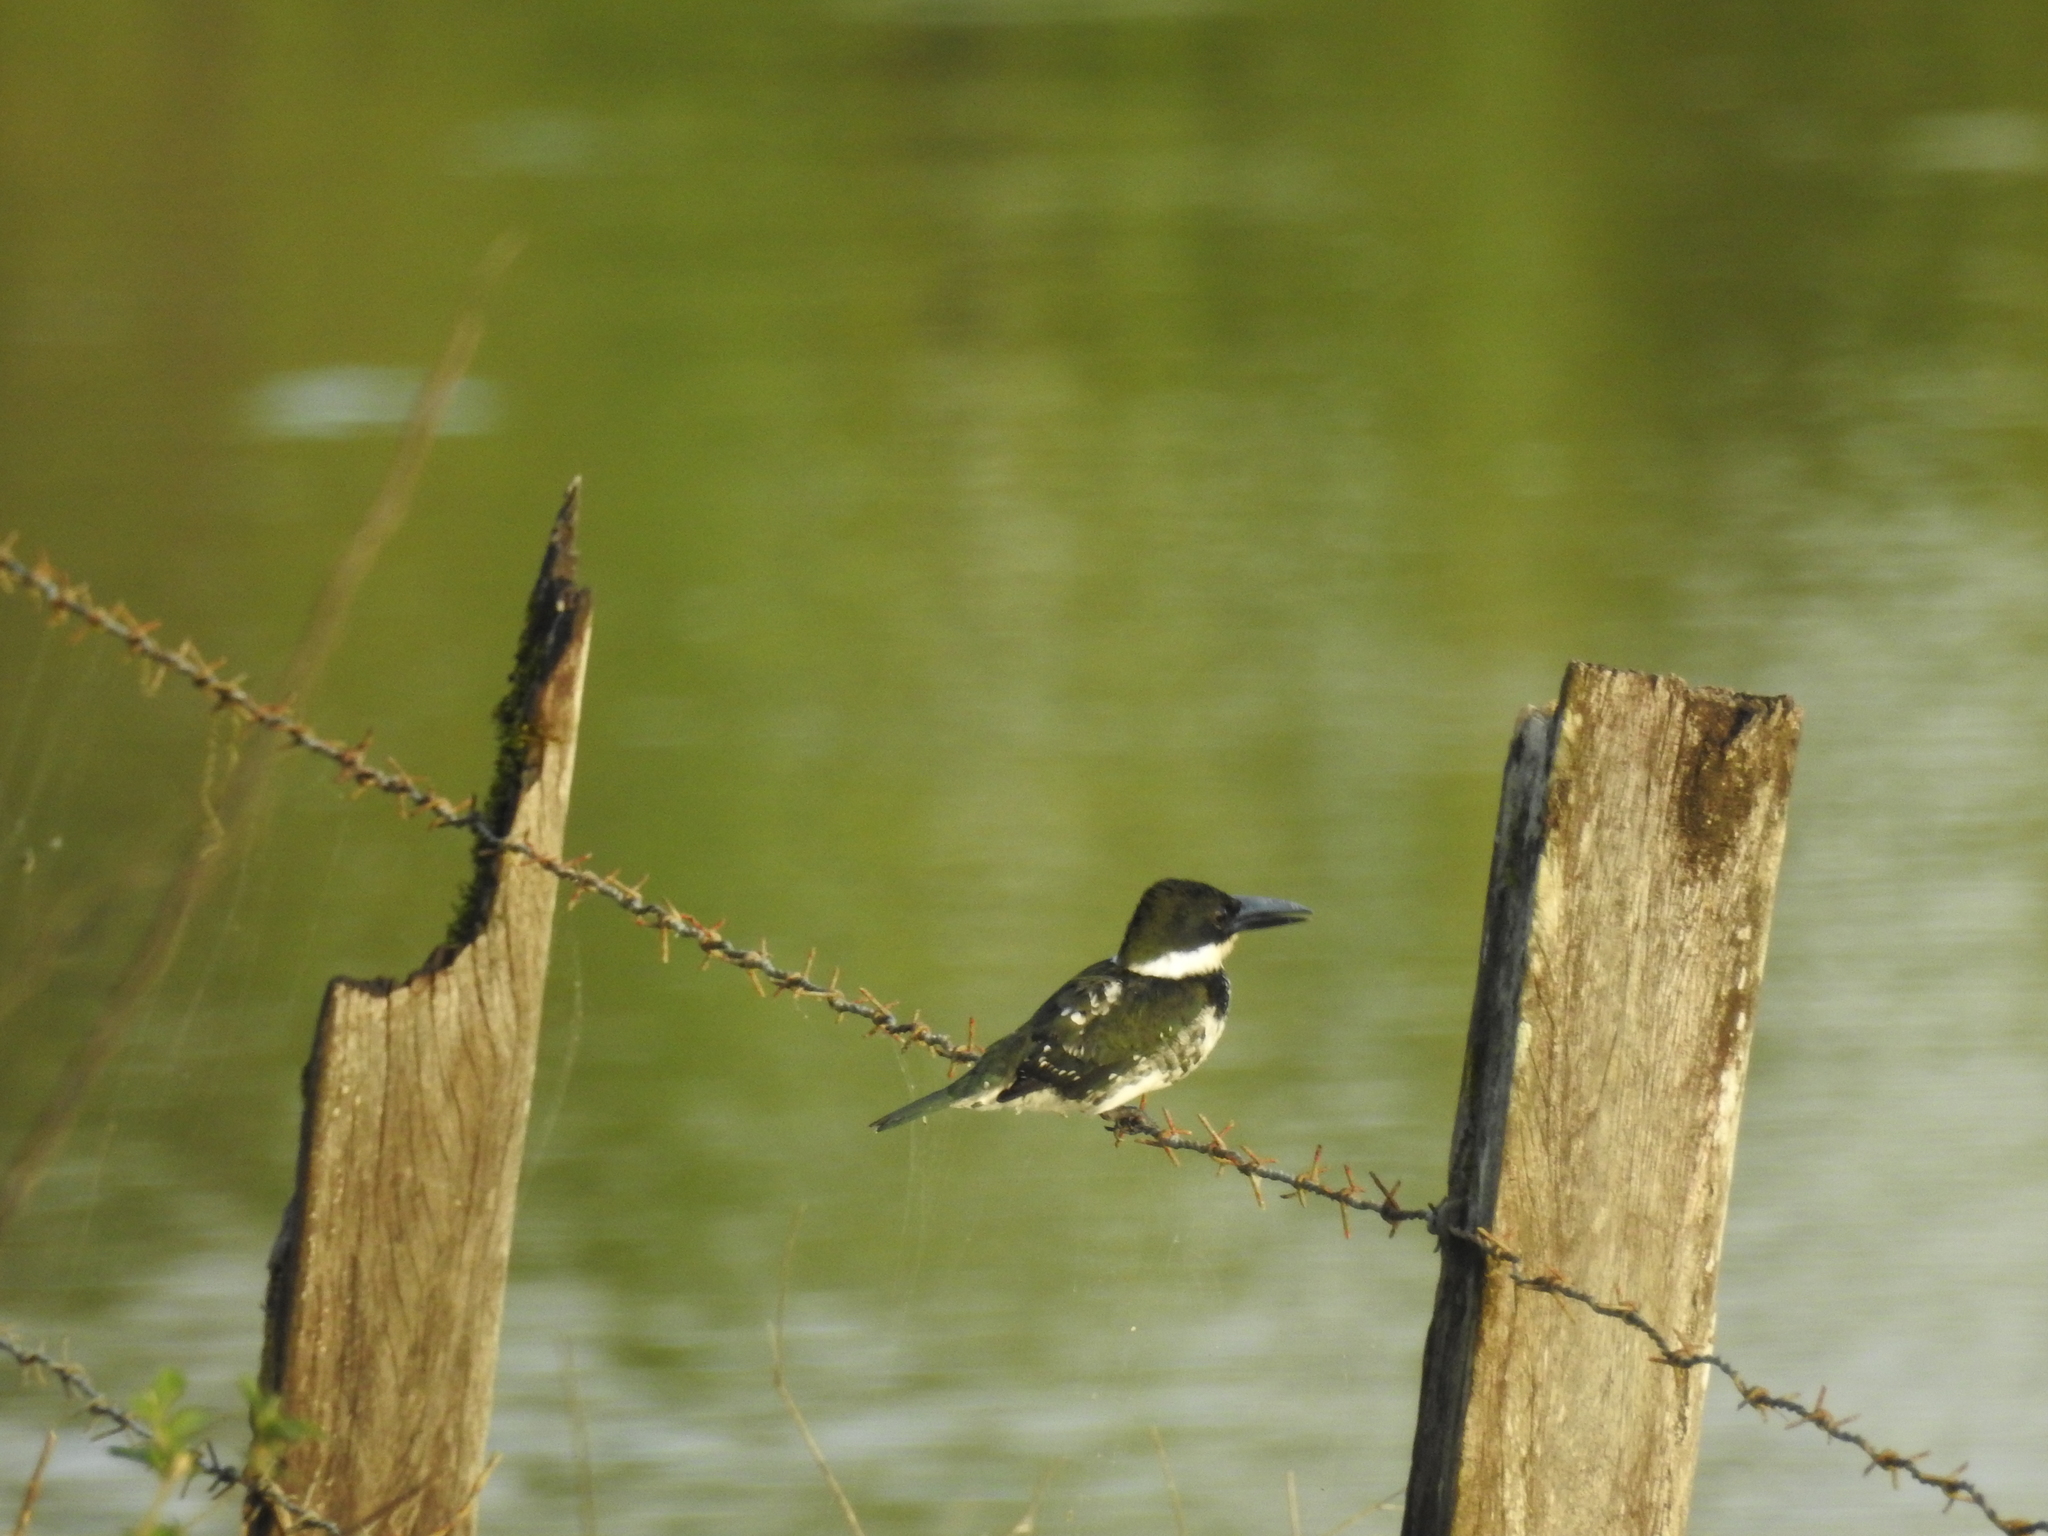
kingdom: Animalia
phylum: Chordata
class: Aves
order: Coraciiformes
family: Alcedinidae
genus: Chloroceryle
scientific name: Chloroceryle americana
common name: Green kingfisher
